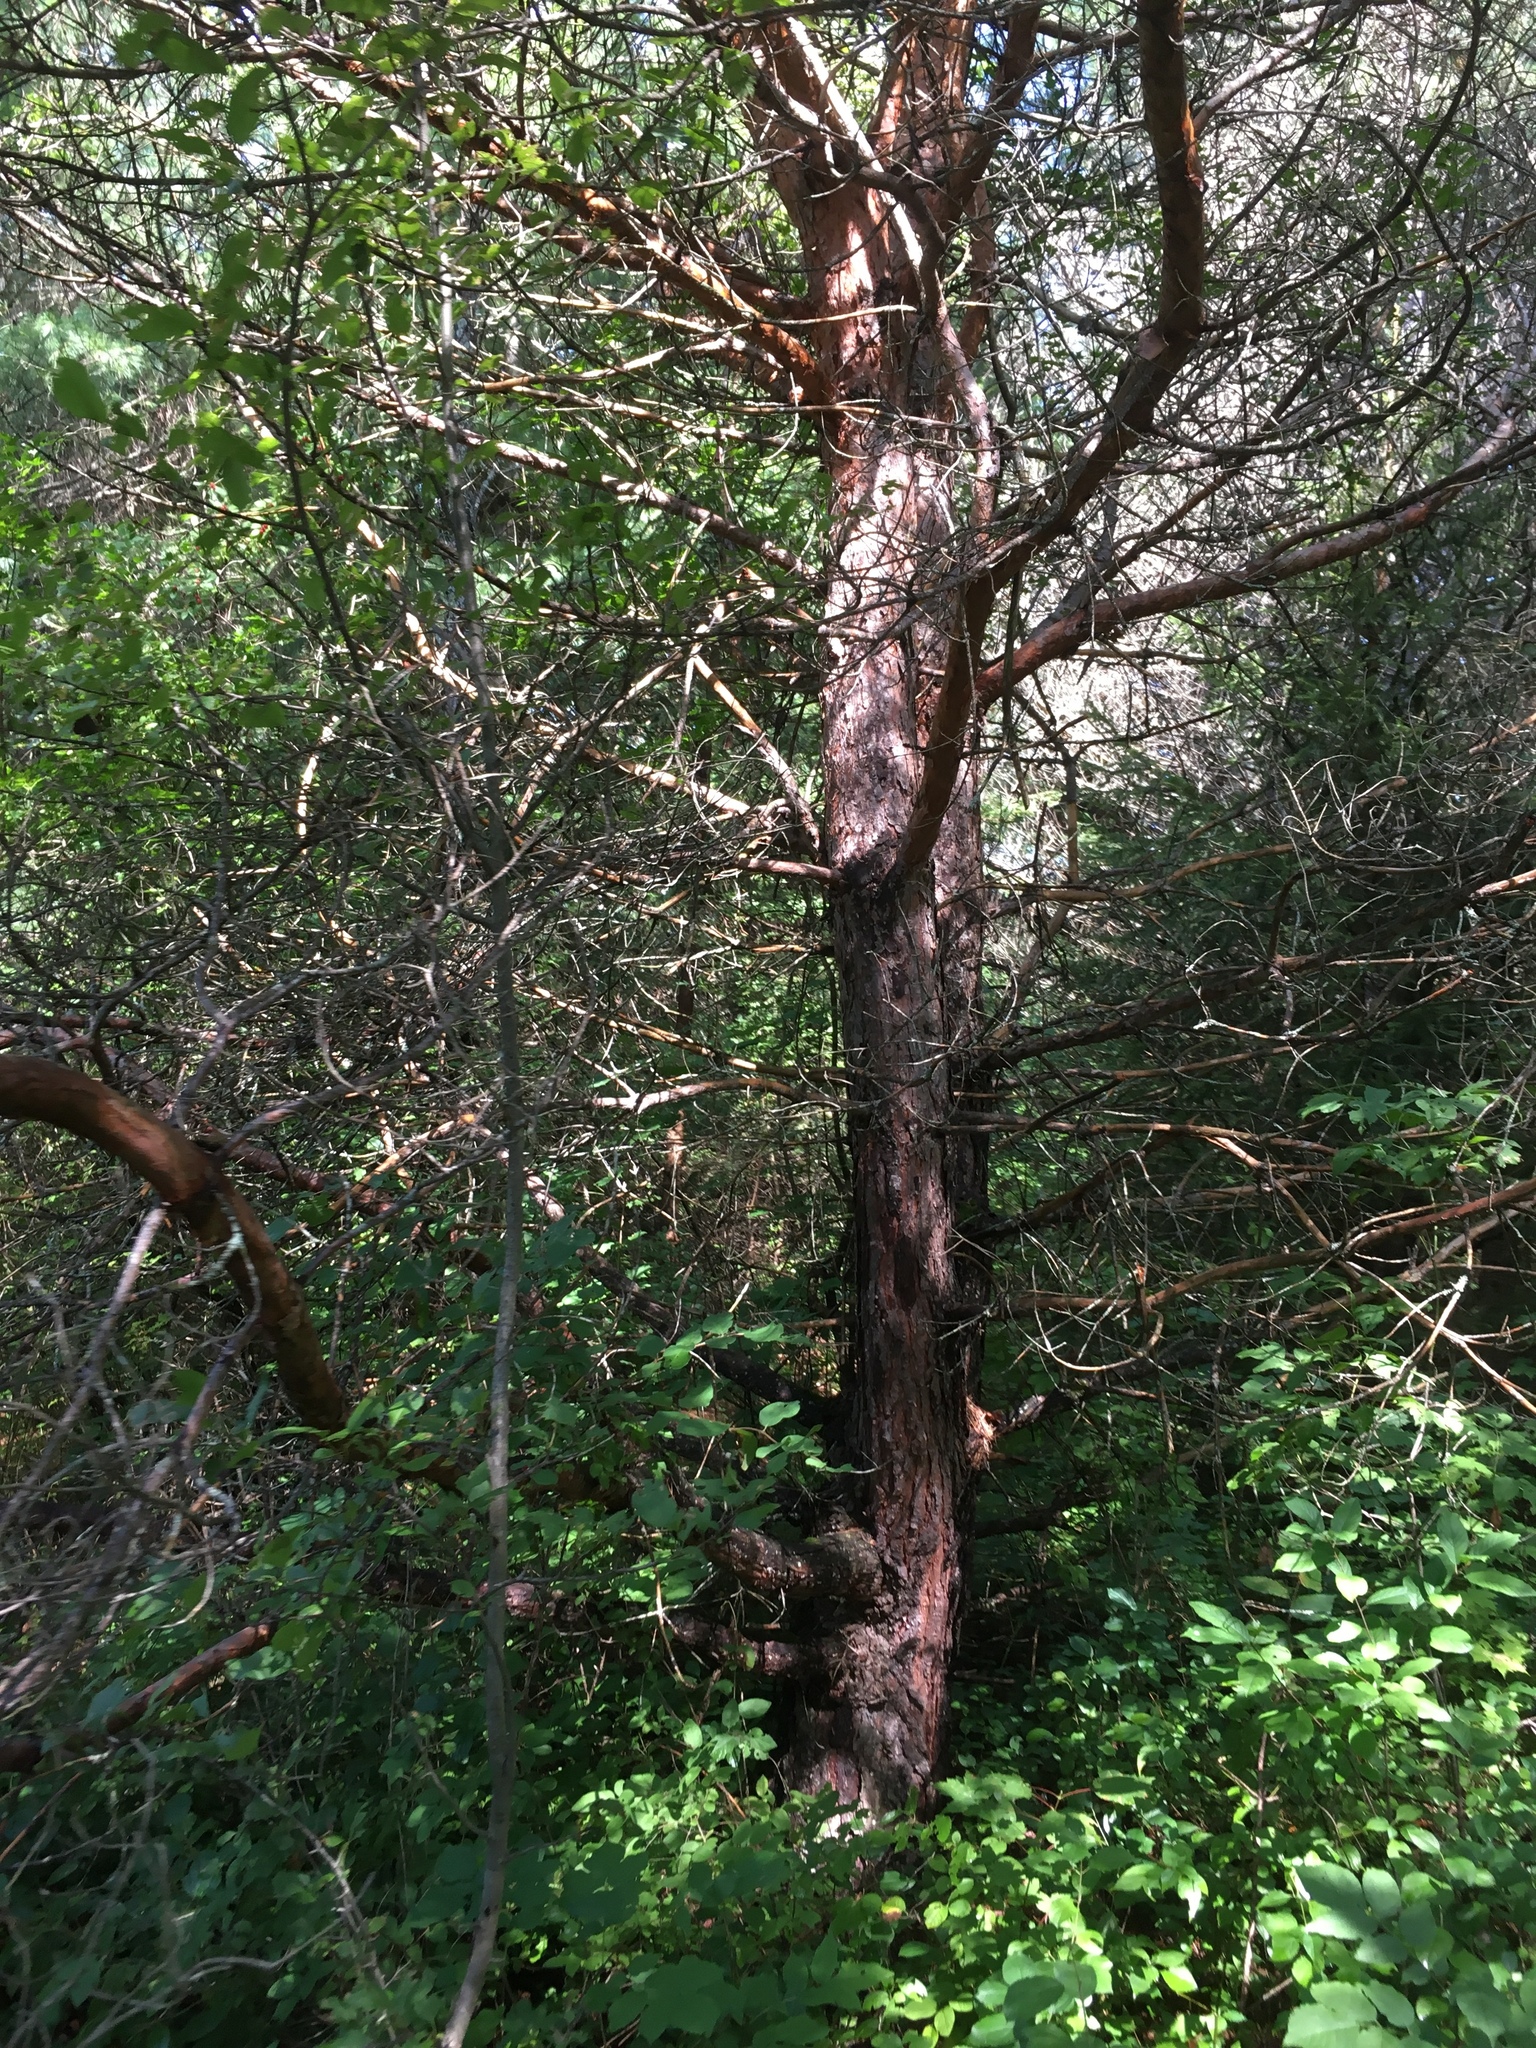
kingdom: Plantae
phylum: Tracheophyta
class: Pinopsida
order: Pinales
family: Pinaceae
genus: Pinus
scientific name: Pinus sylvestris
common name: Scots pine
